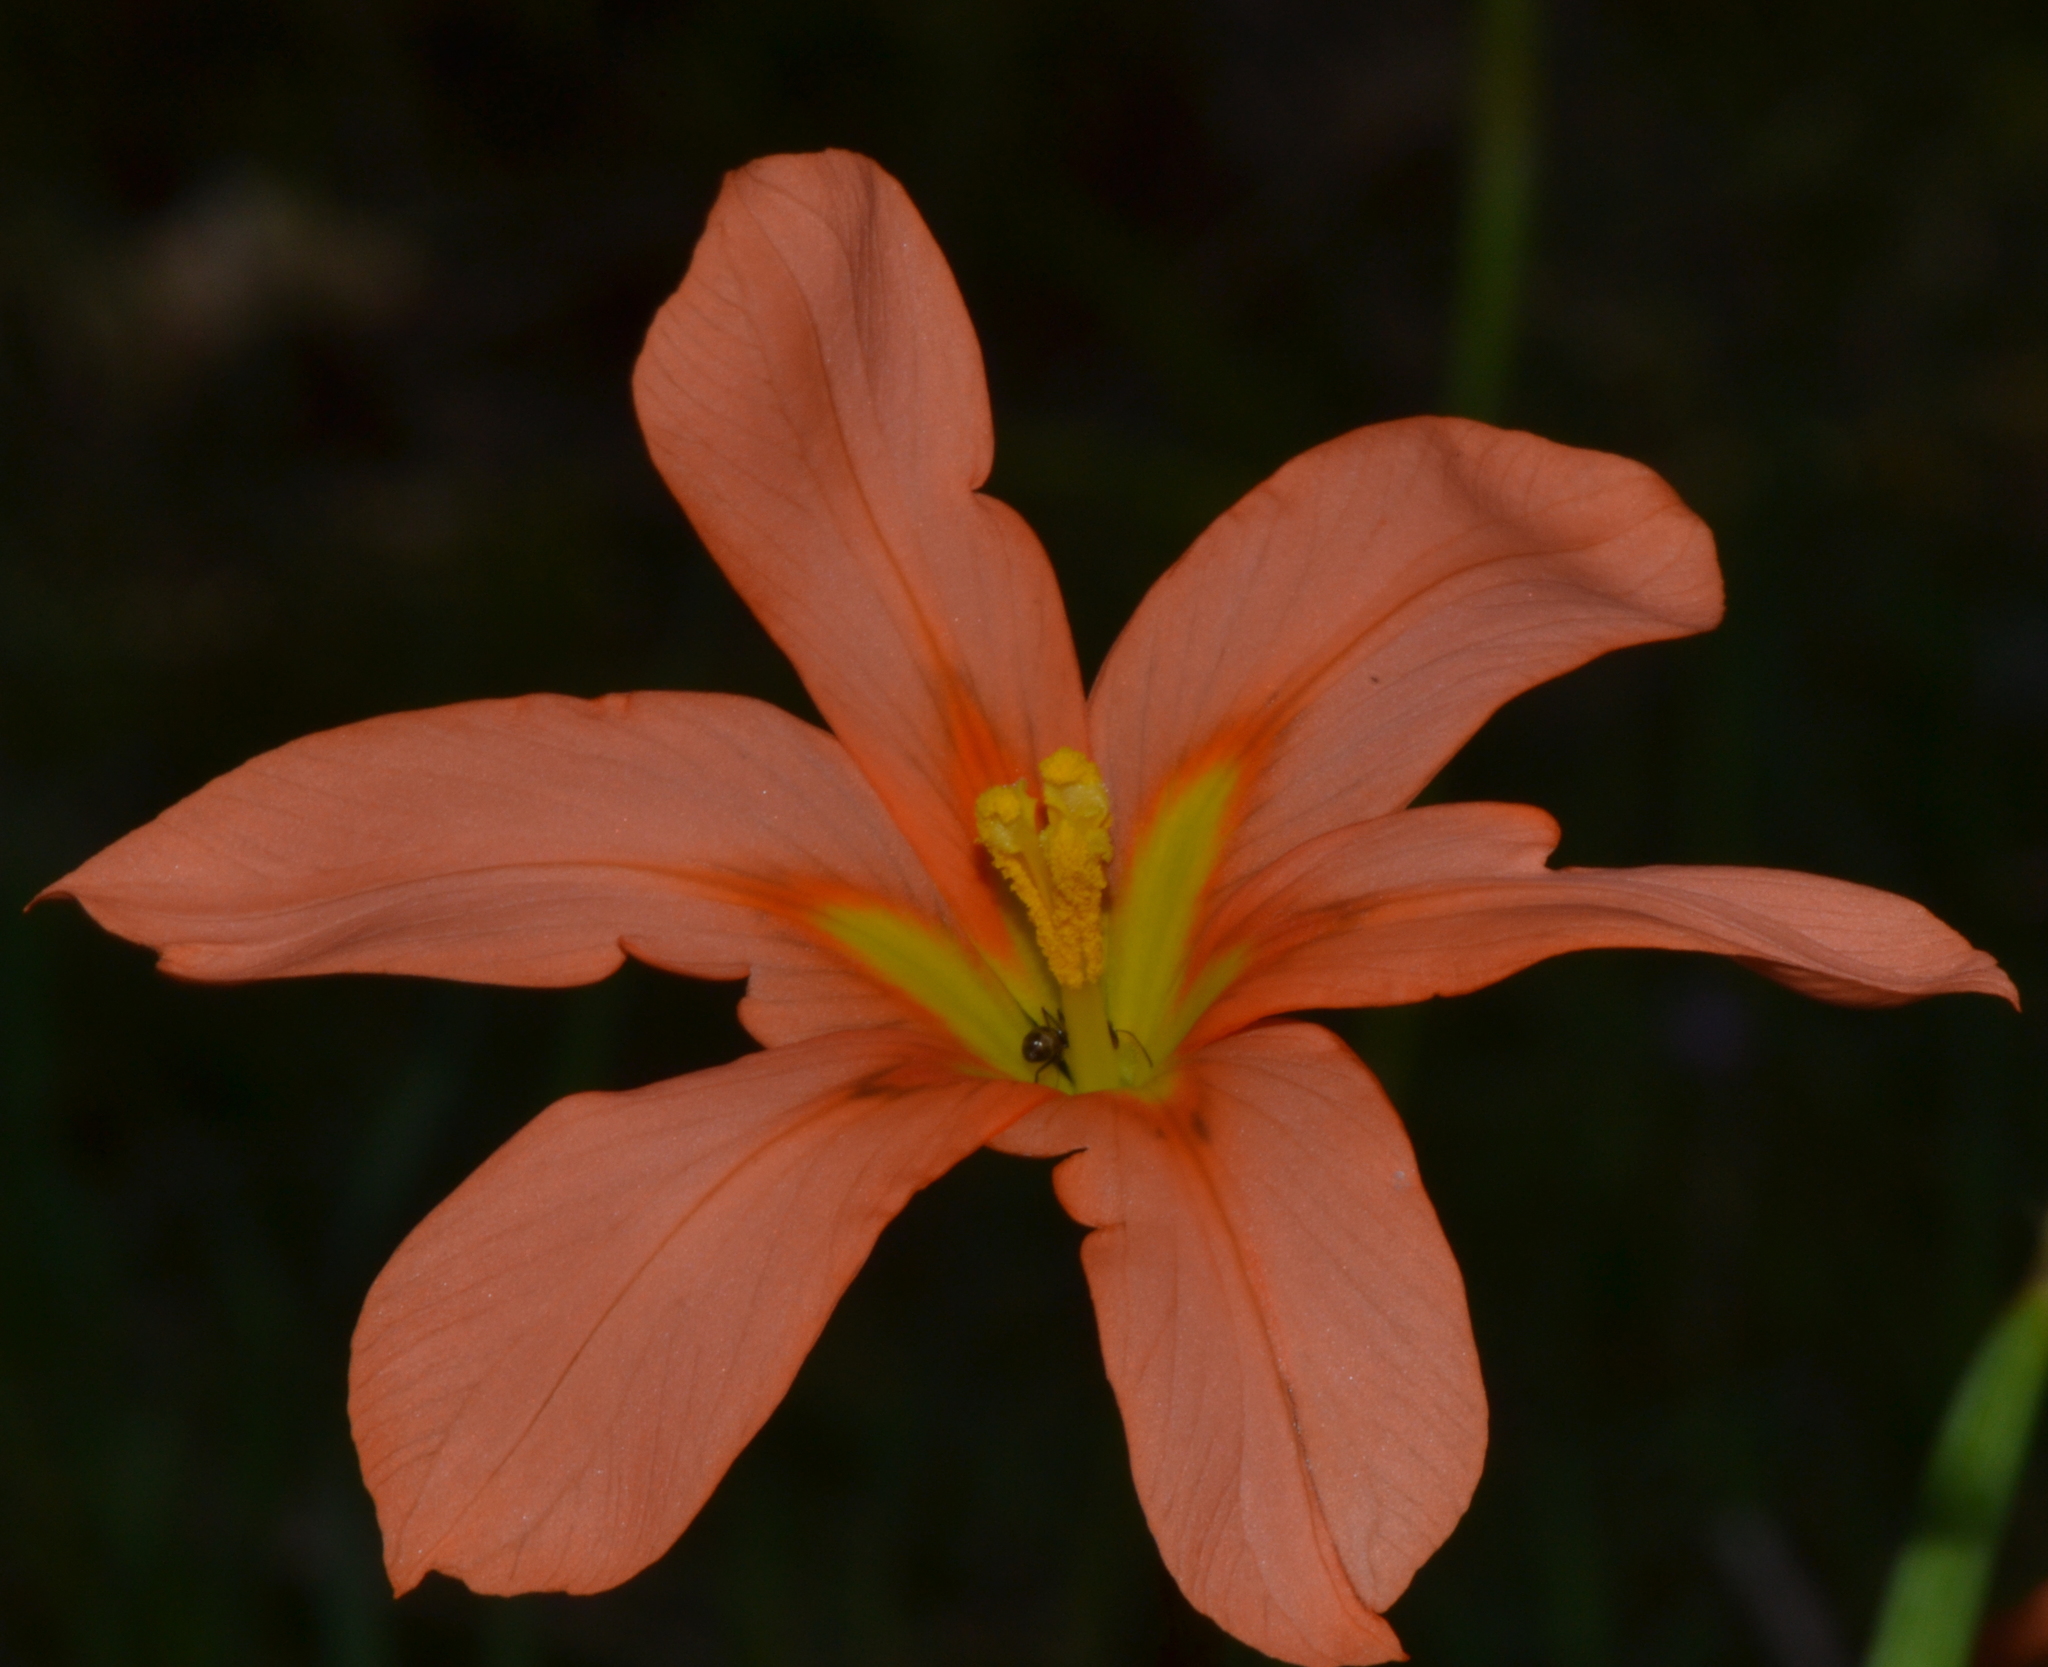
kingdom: Plantae
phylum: Tracheophyta
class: Liliopsida
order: Asparagales
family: Iridaceae
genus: Moraea
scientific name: Moraea flaccida
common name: One-leaf cape-tulip
